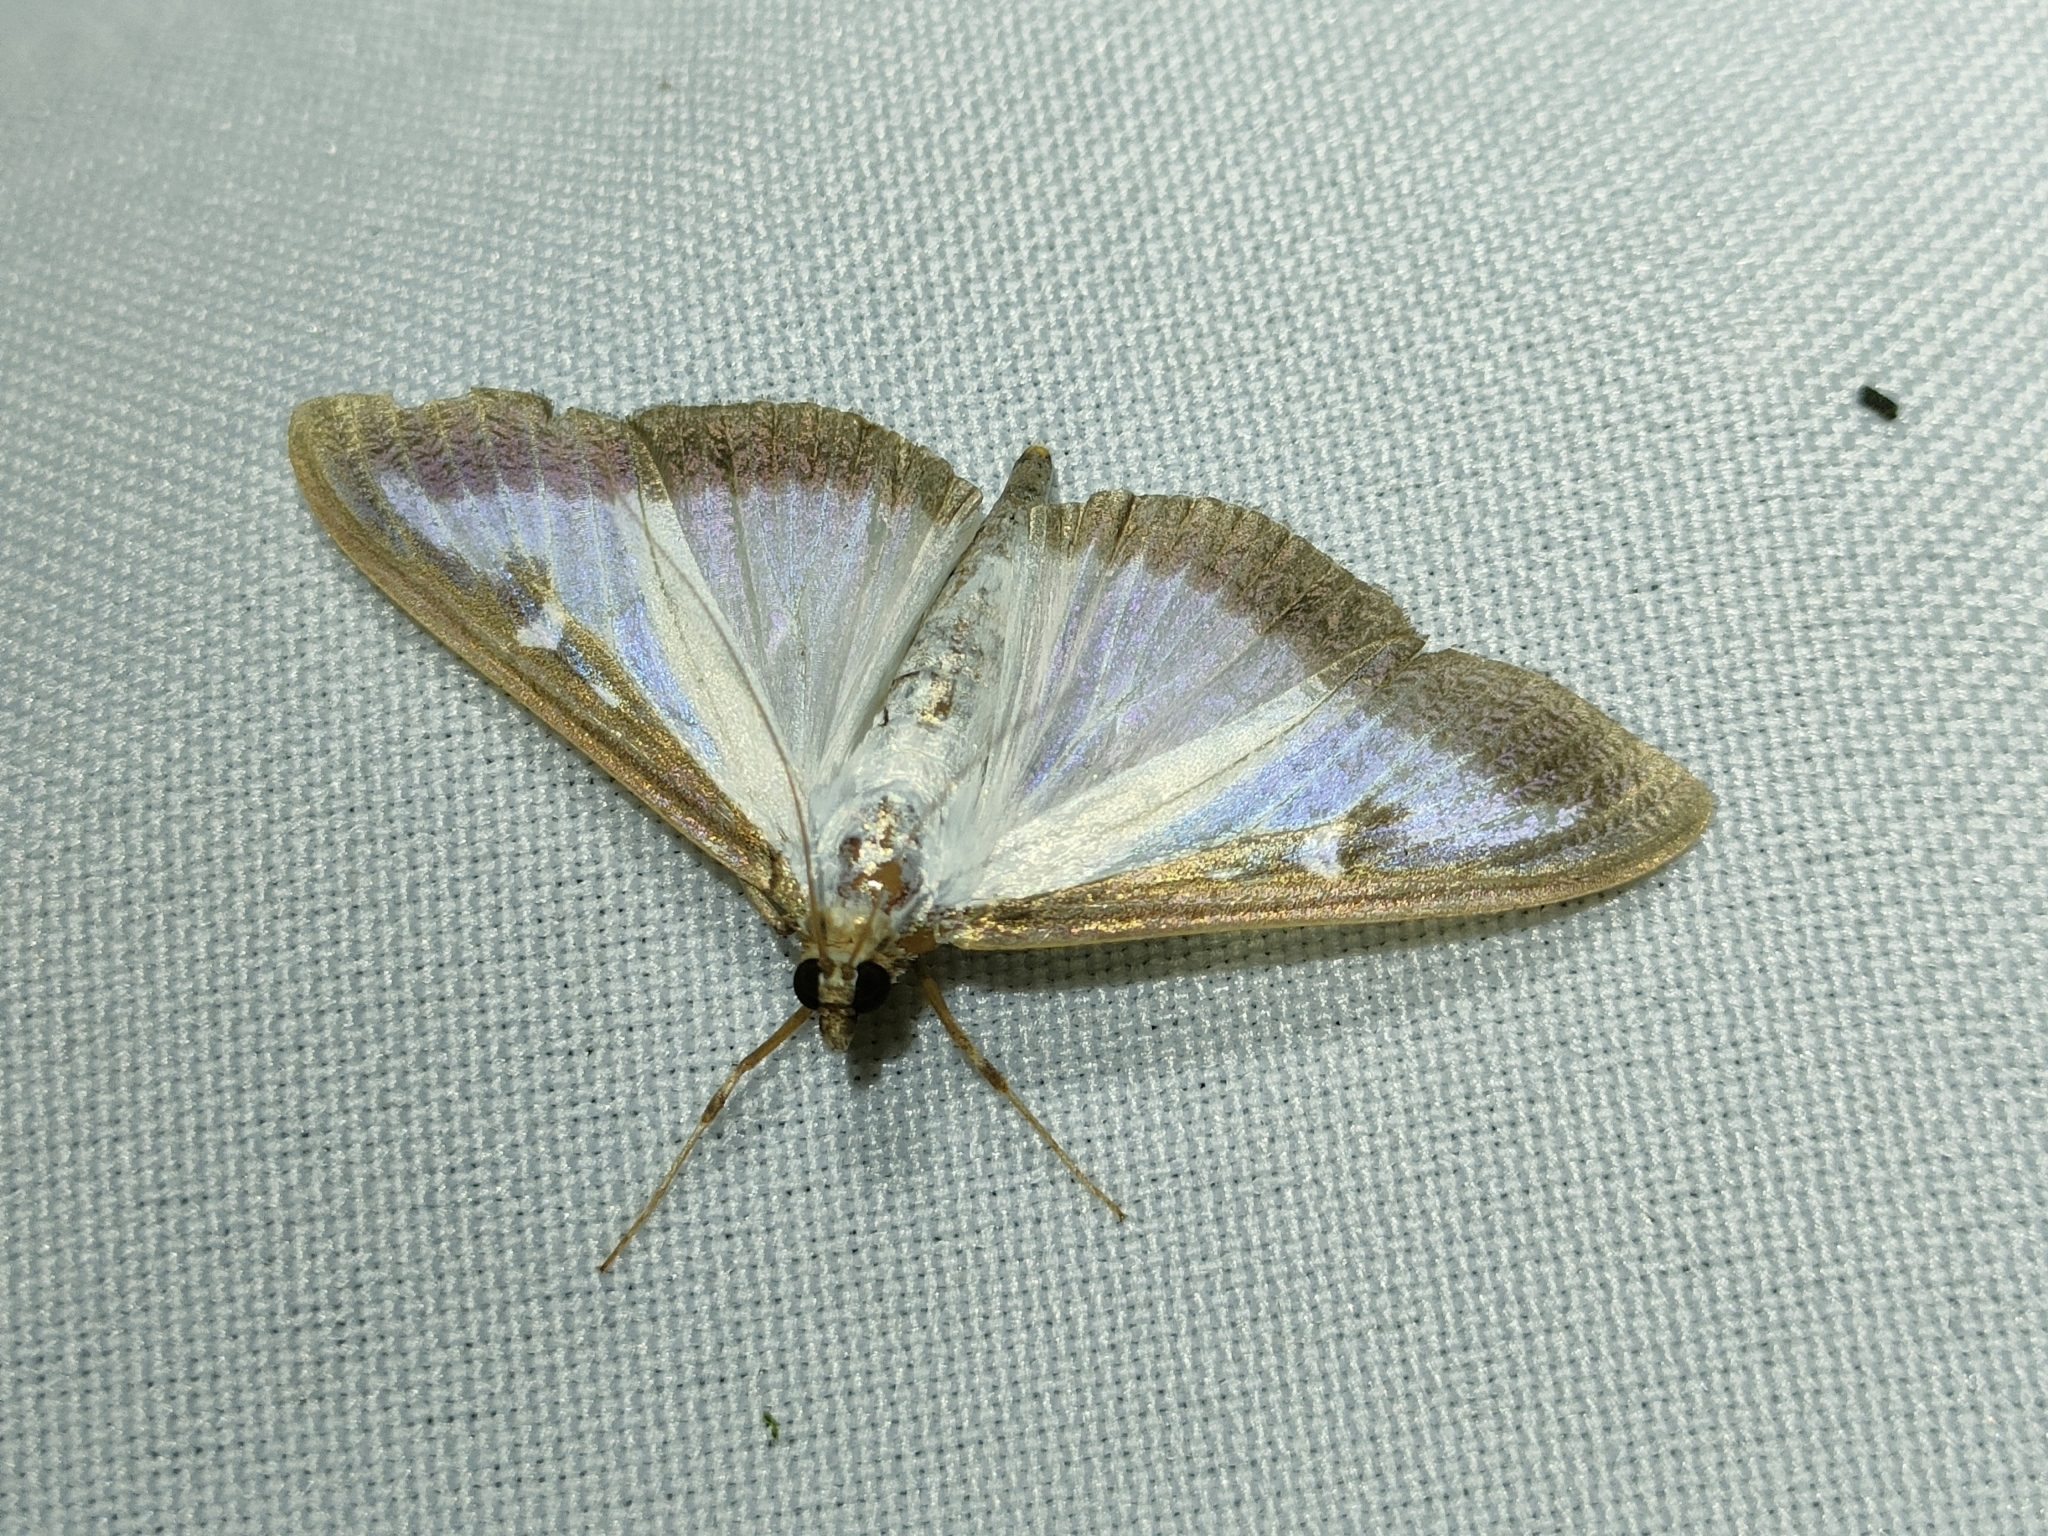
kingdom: Animalia
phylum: Arthropoda
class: Insecta
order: Lepidoptera
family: Crambidae
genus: Cydalima
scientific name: Cydalima perspectalis
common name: Box tree moth
